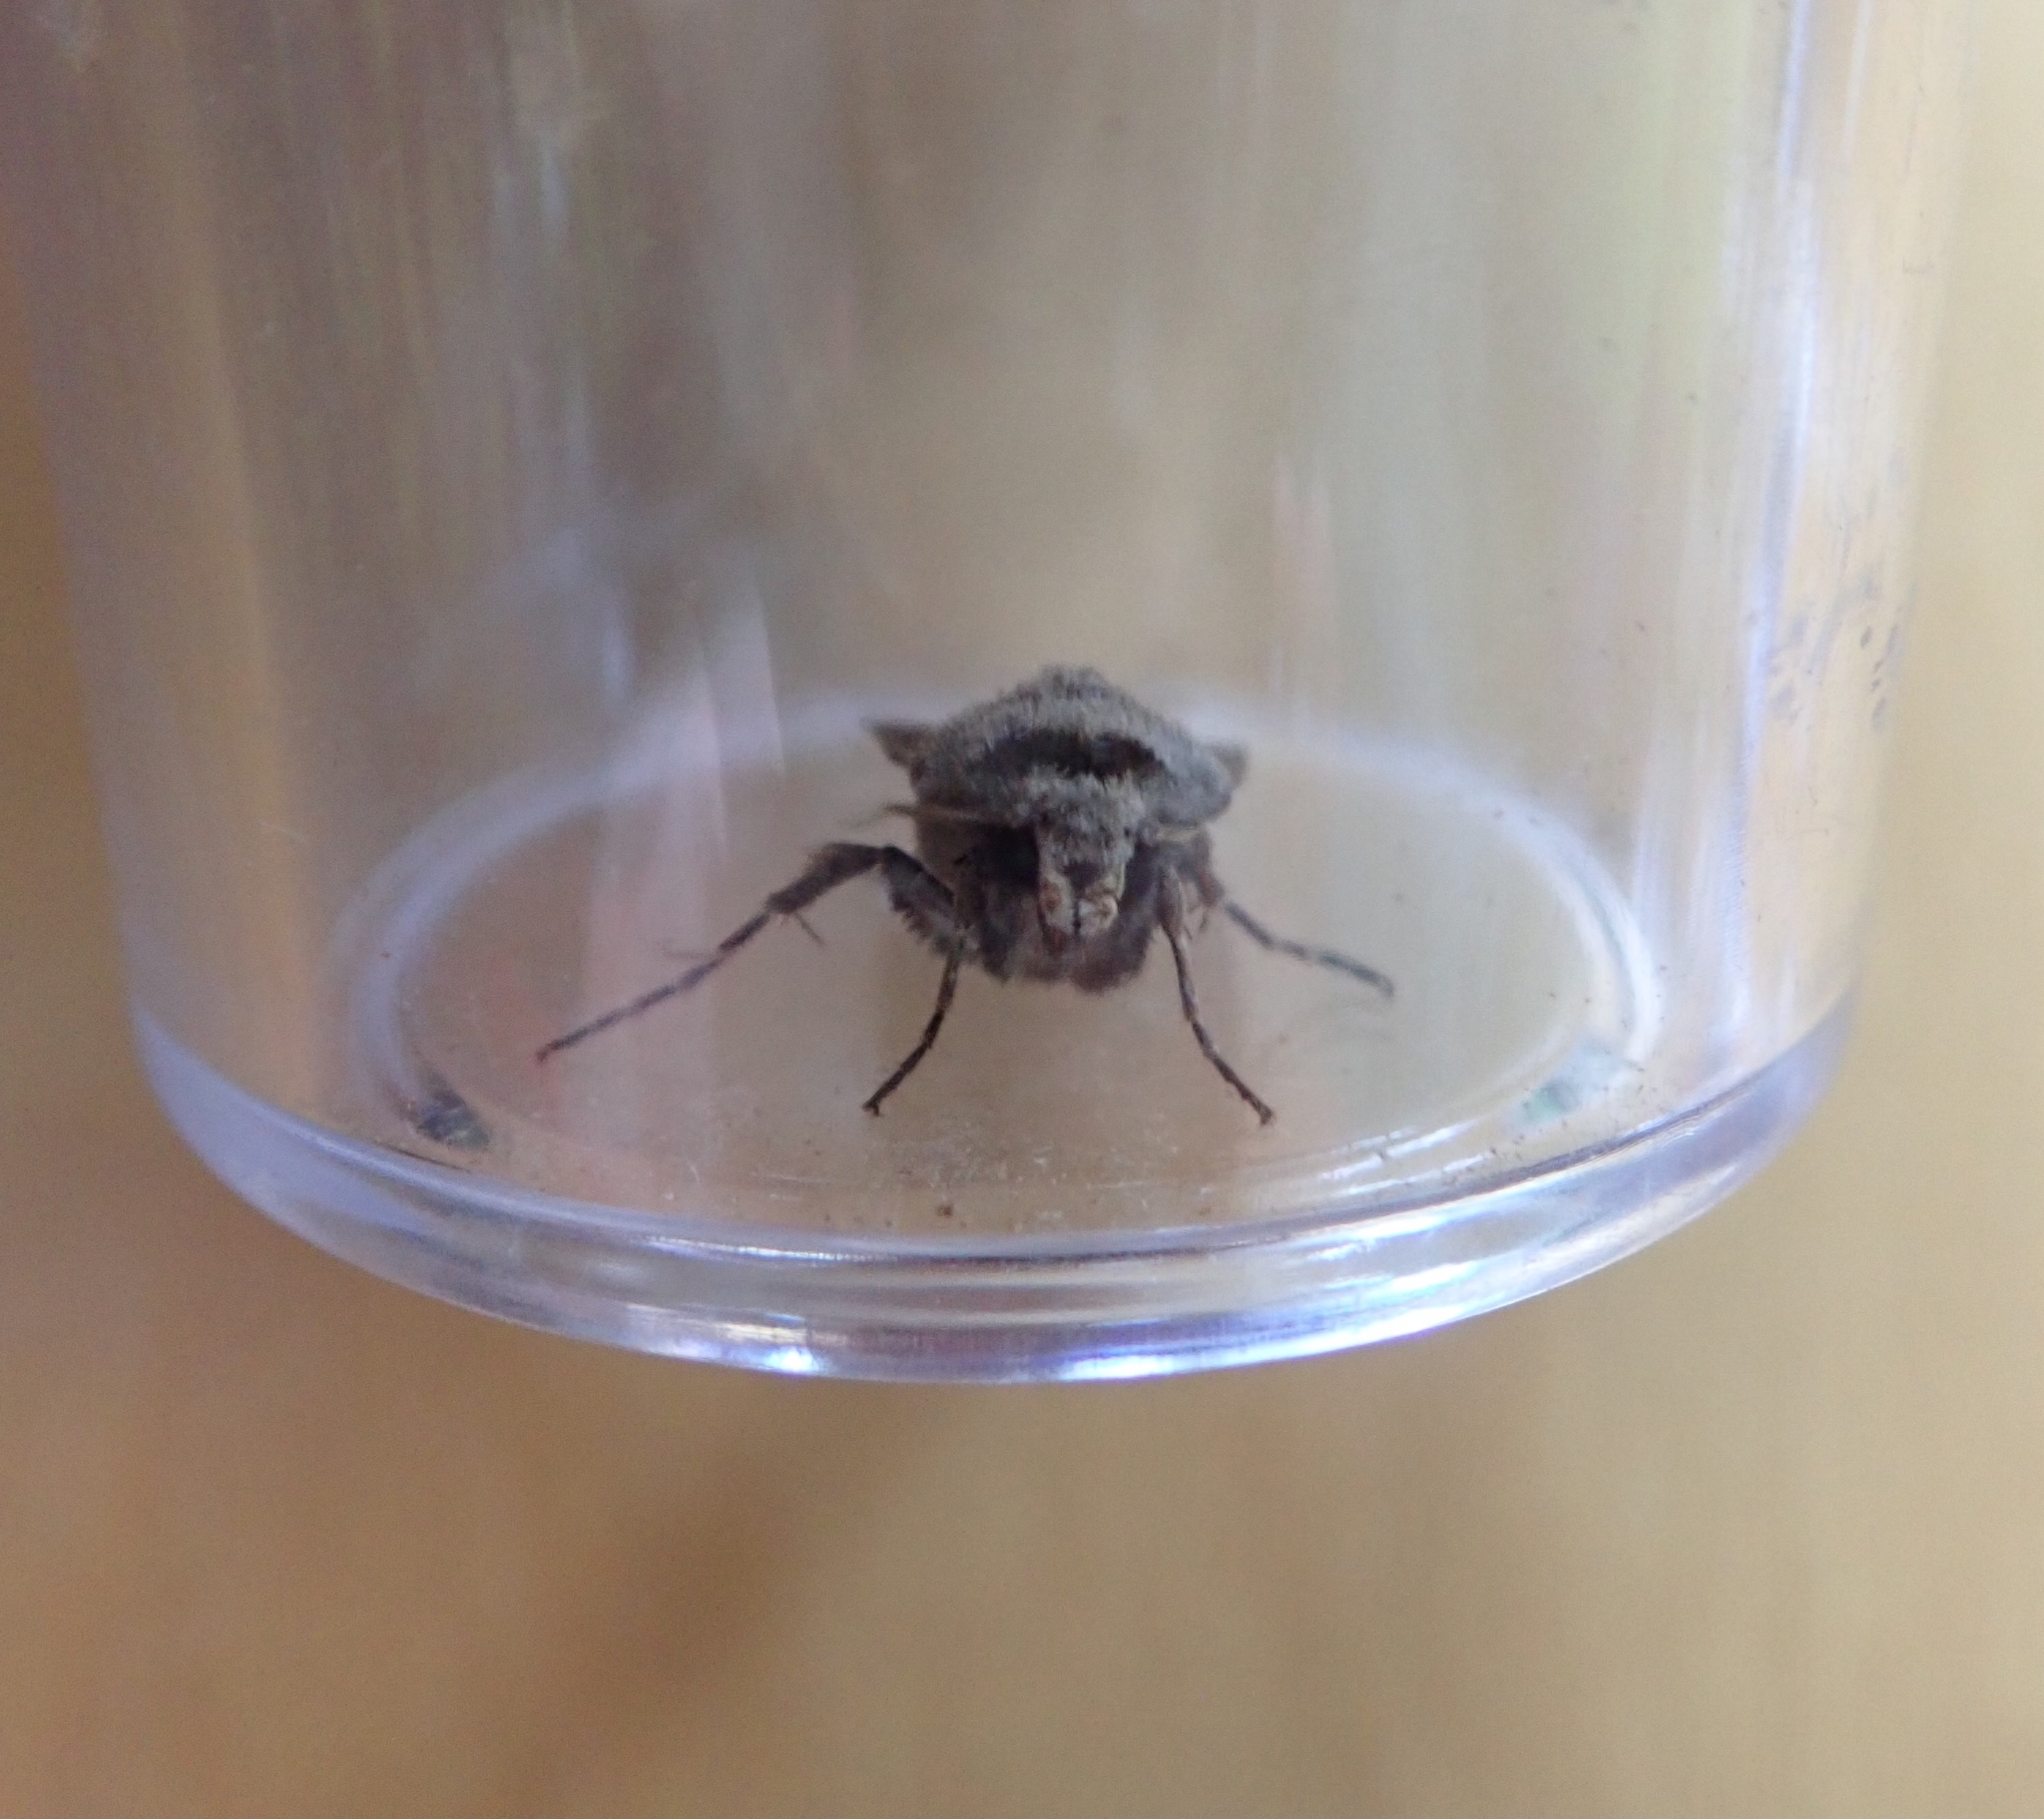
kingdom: Animalia
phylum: Arthropoda
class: Insecta
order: Lepidoptera
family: Noctuidae
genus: Agrotis
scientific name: Agrotis exclamationis
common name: Heart and dart
